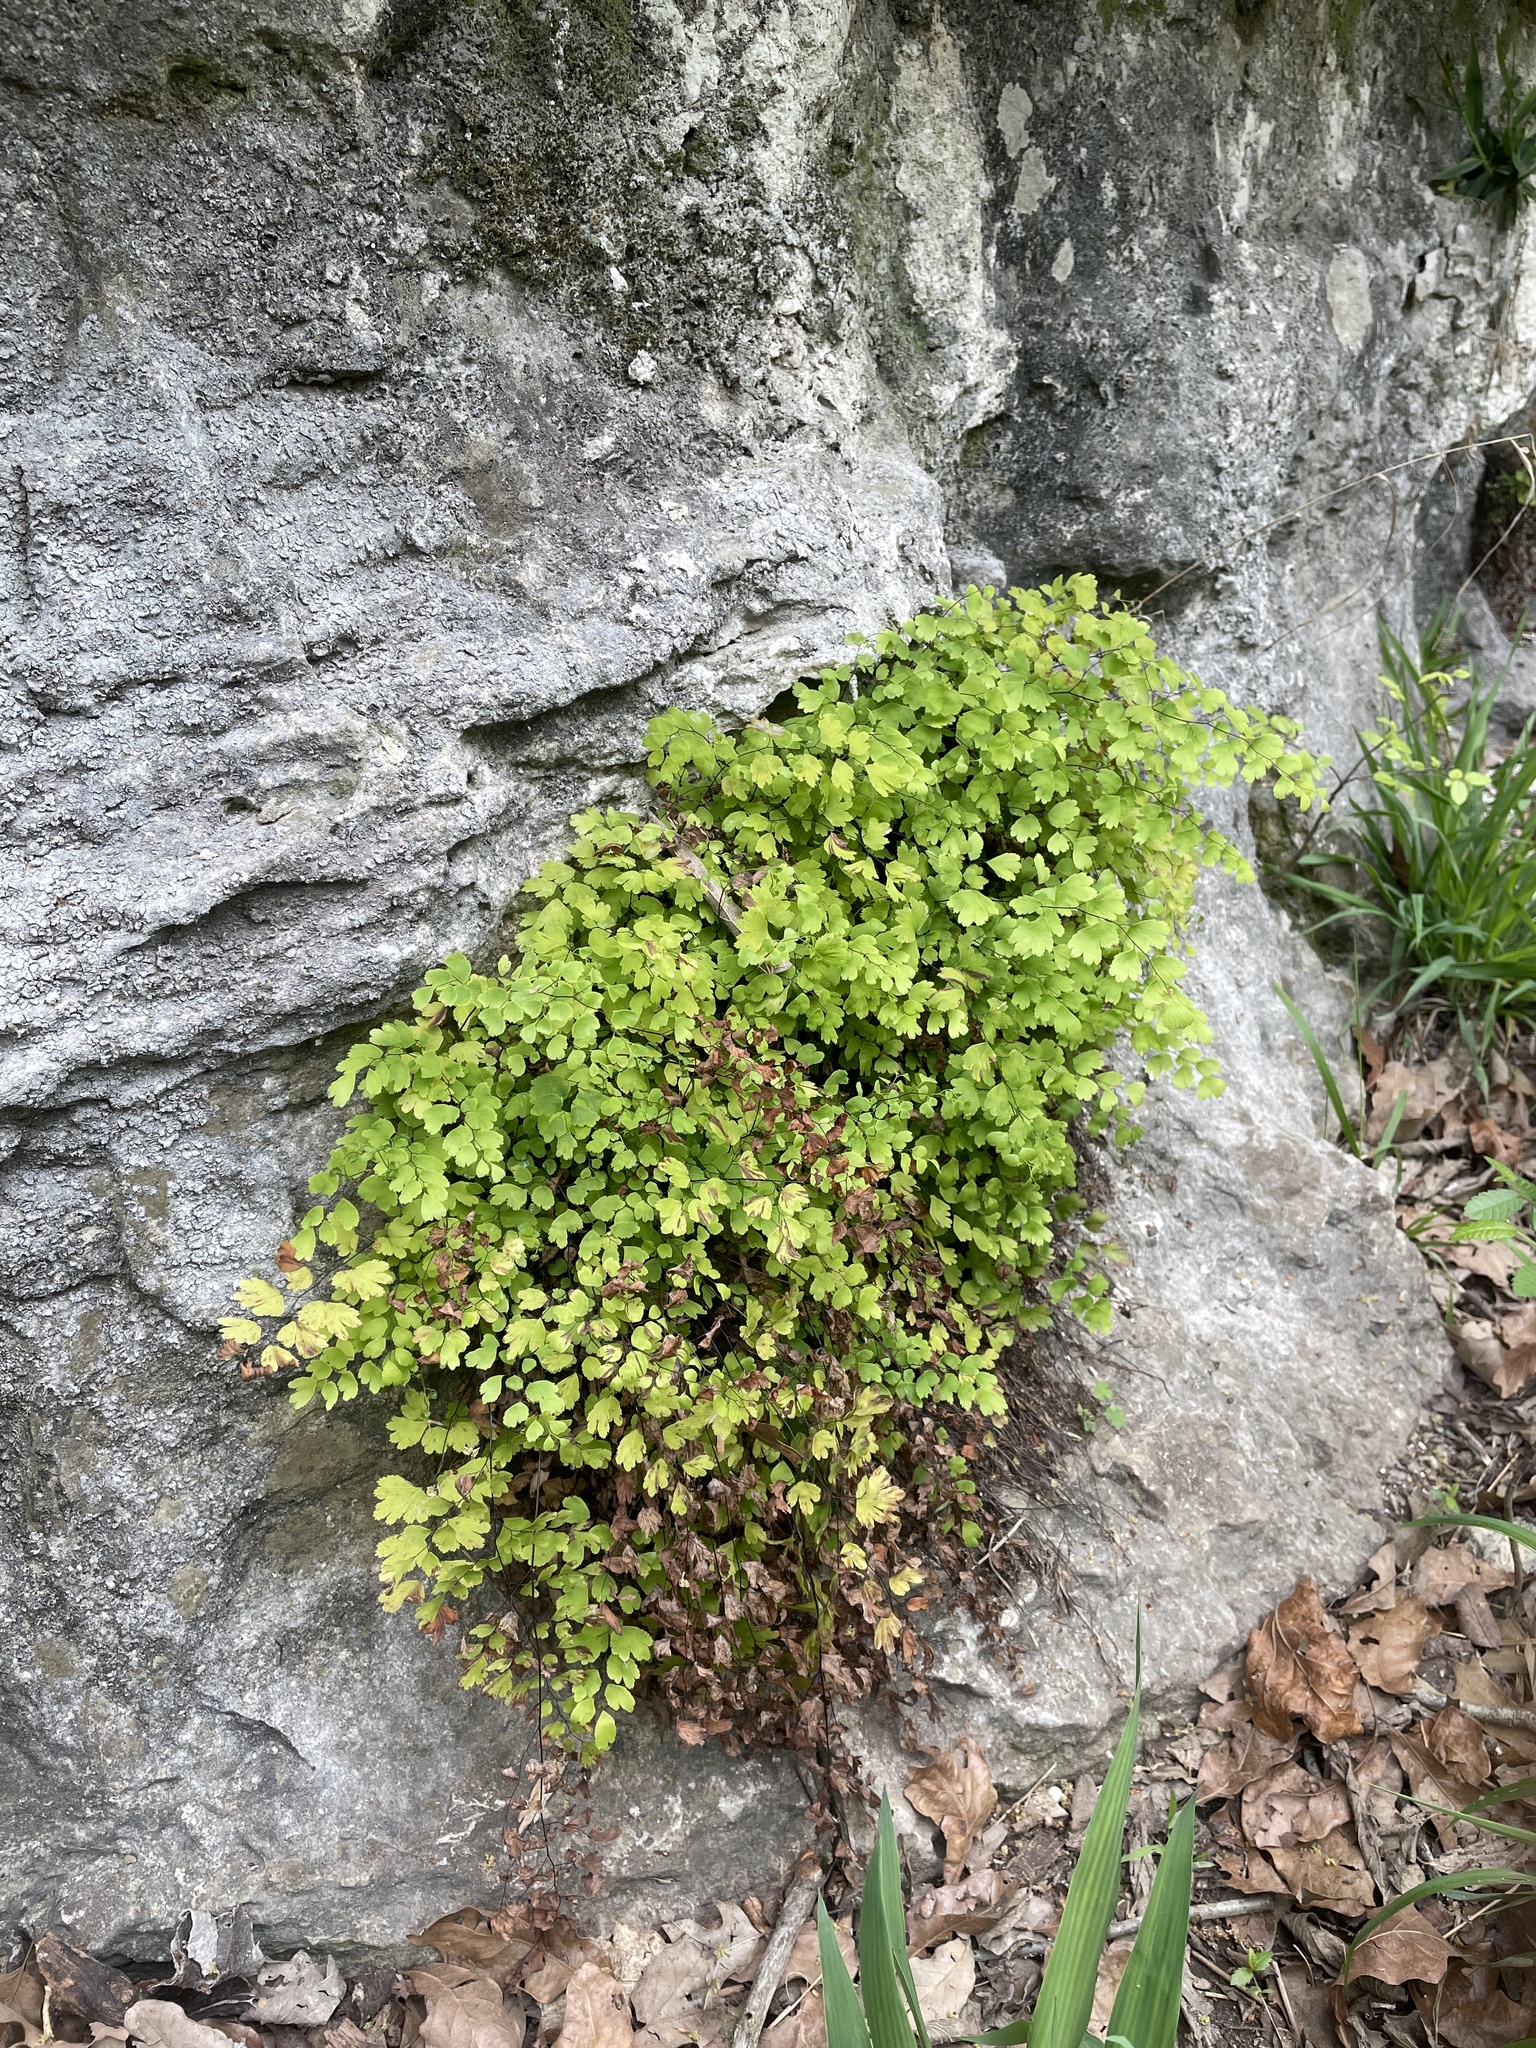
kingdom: Plantae
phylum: Tracheophyta
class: Polypodiopsida
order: Polypodiales
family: Pteridaceae
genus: Adiantum
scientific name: Adiantum capillus-veneris
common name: Maidenhair fern
